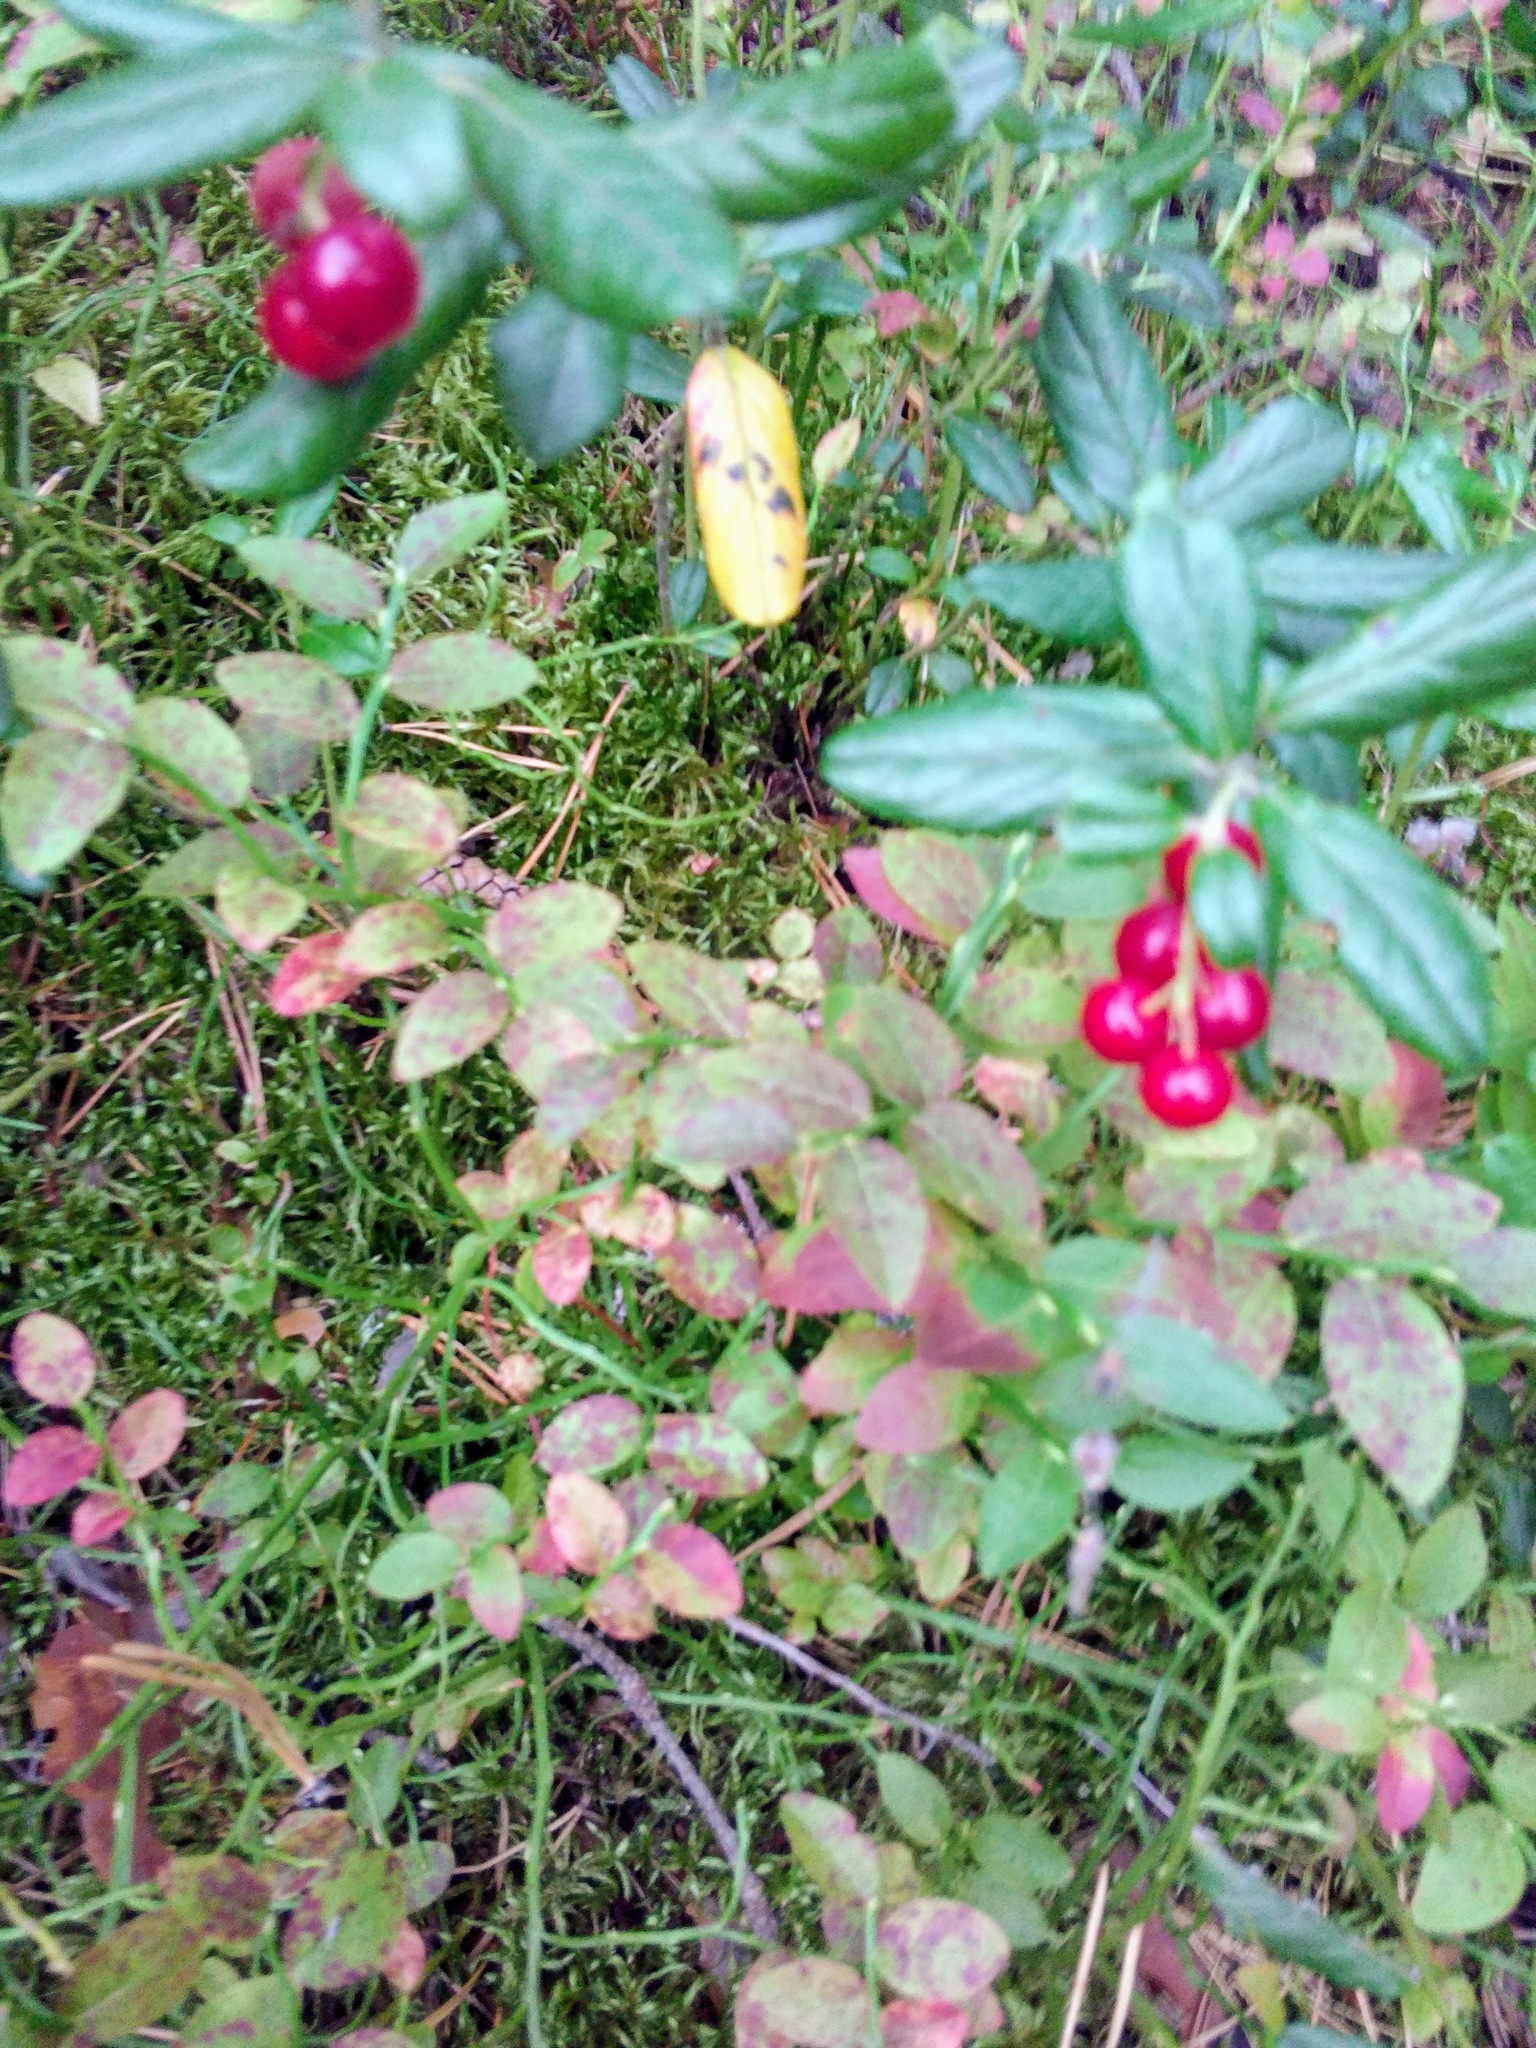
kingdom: Plantae
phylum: Tracheophyta
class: Magnoliopsida
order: Ericales
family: Ericaceae
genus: Vaccinium
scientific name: Vaccinium vitis-idaea
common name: Cowberry
